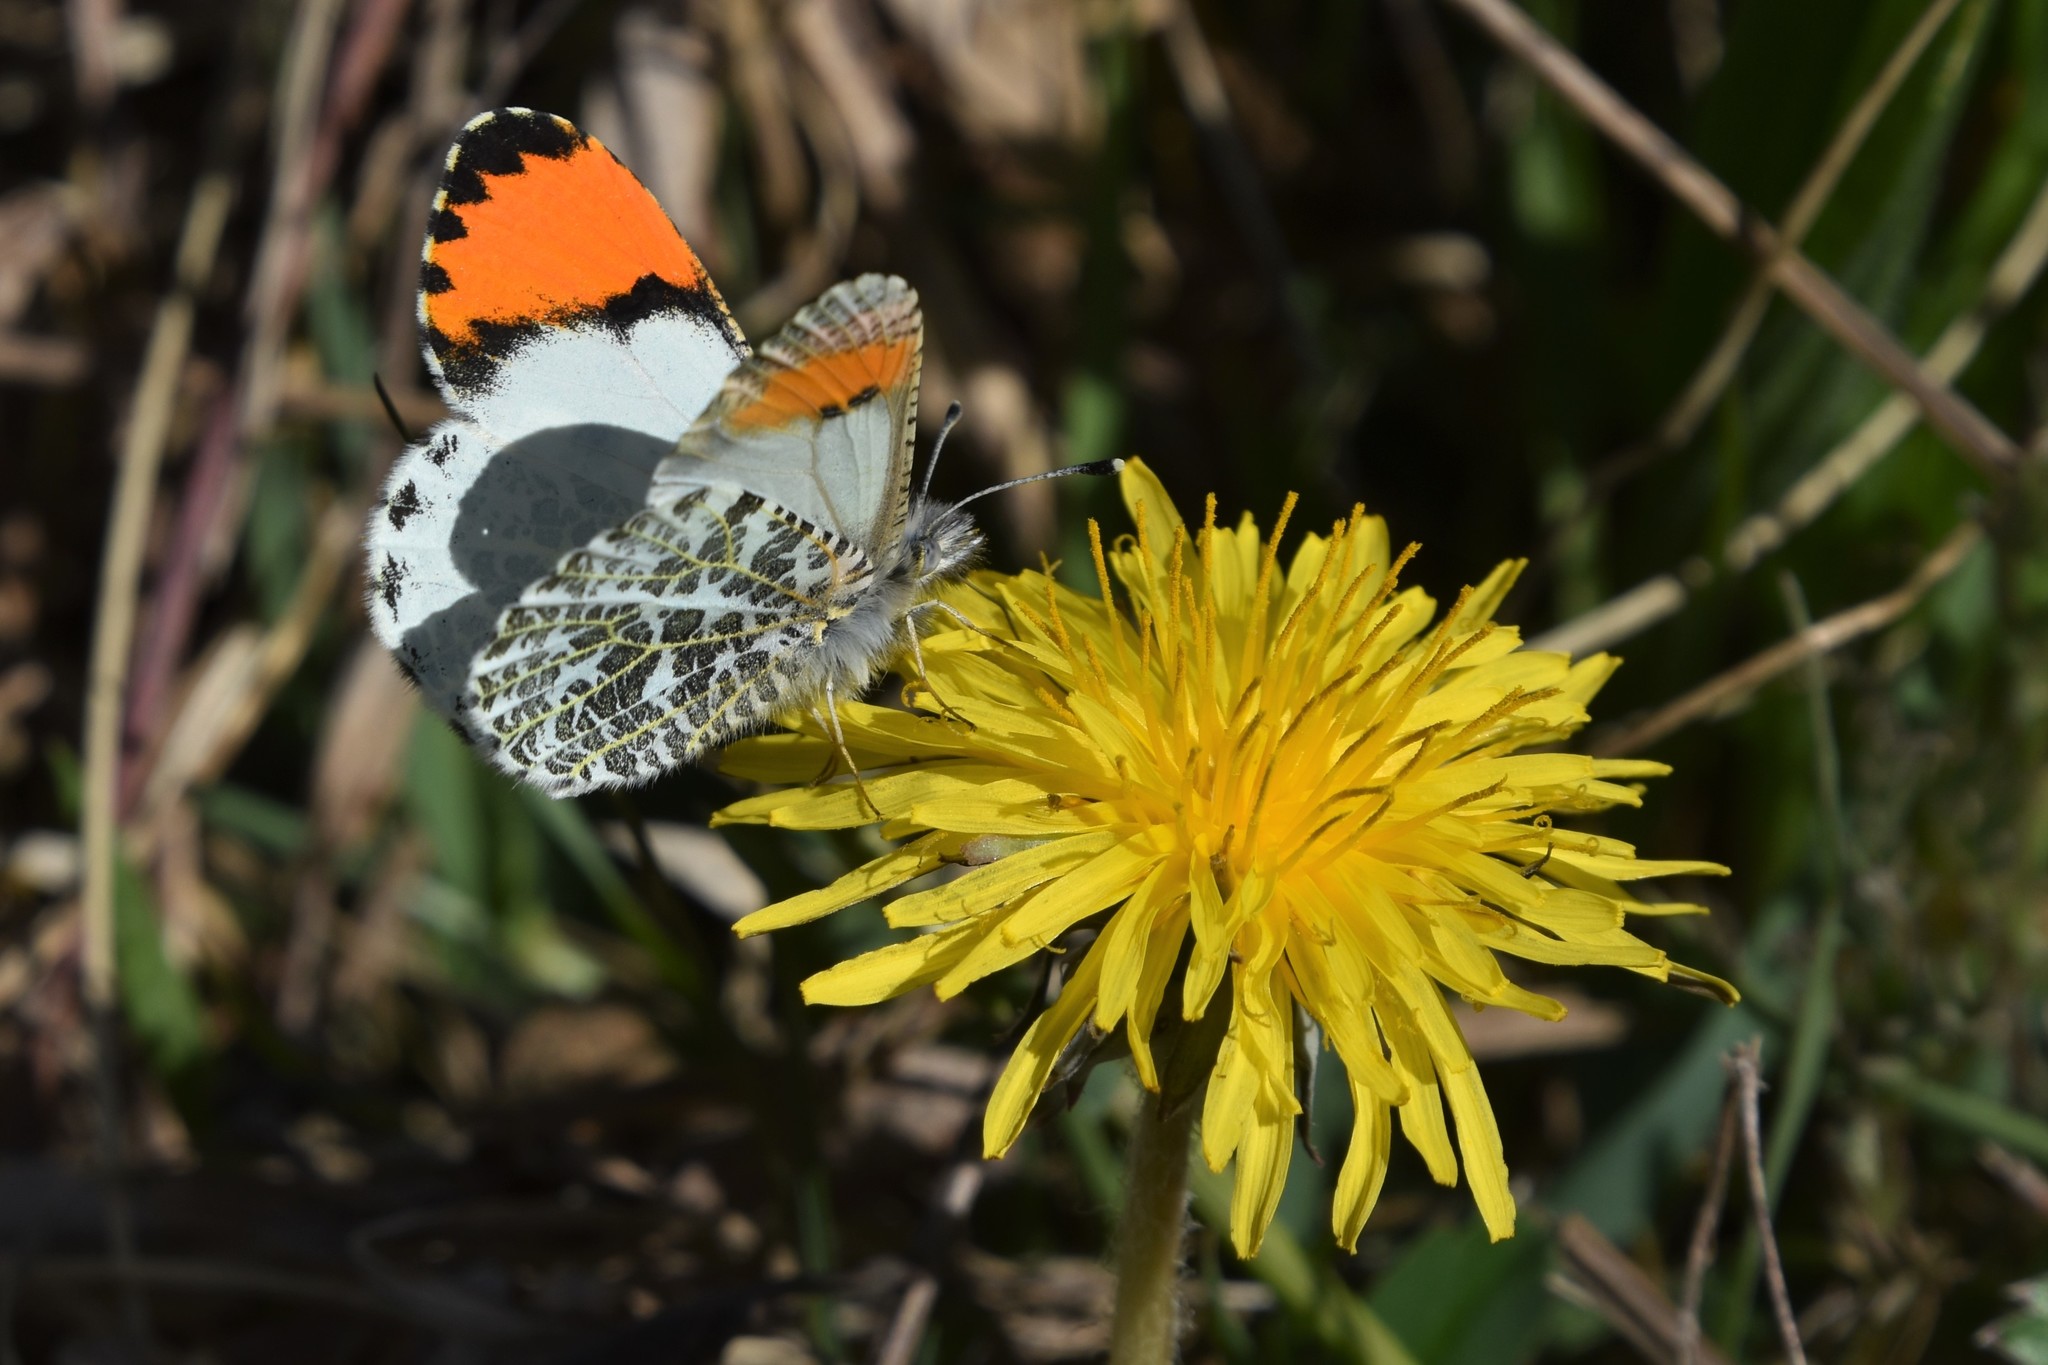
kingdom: Animalia
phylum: Arthropoda
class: Insecta
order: Lepidoptera
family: Pieridae
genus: Anthocharis
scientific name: Anthocharis julia
